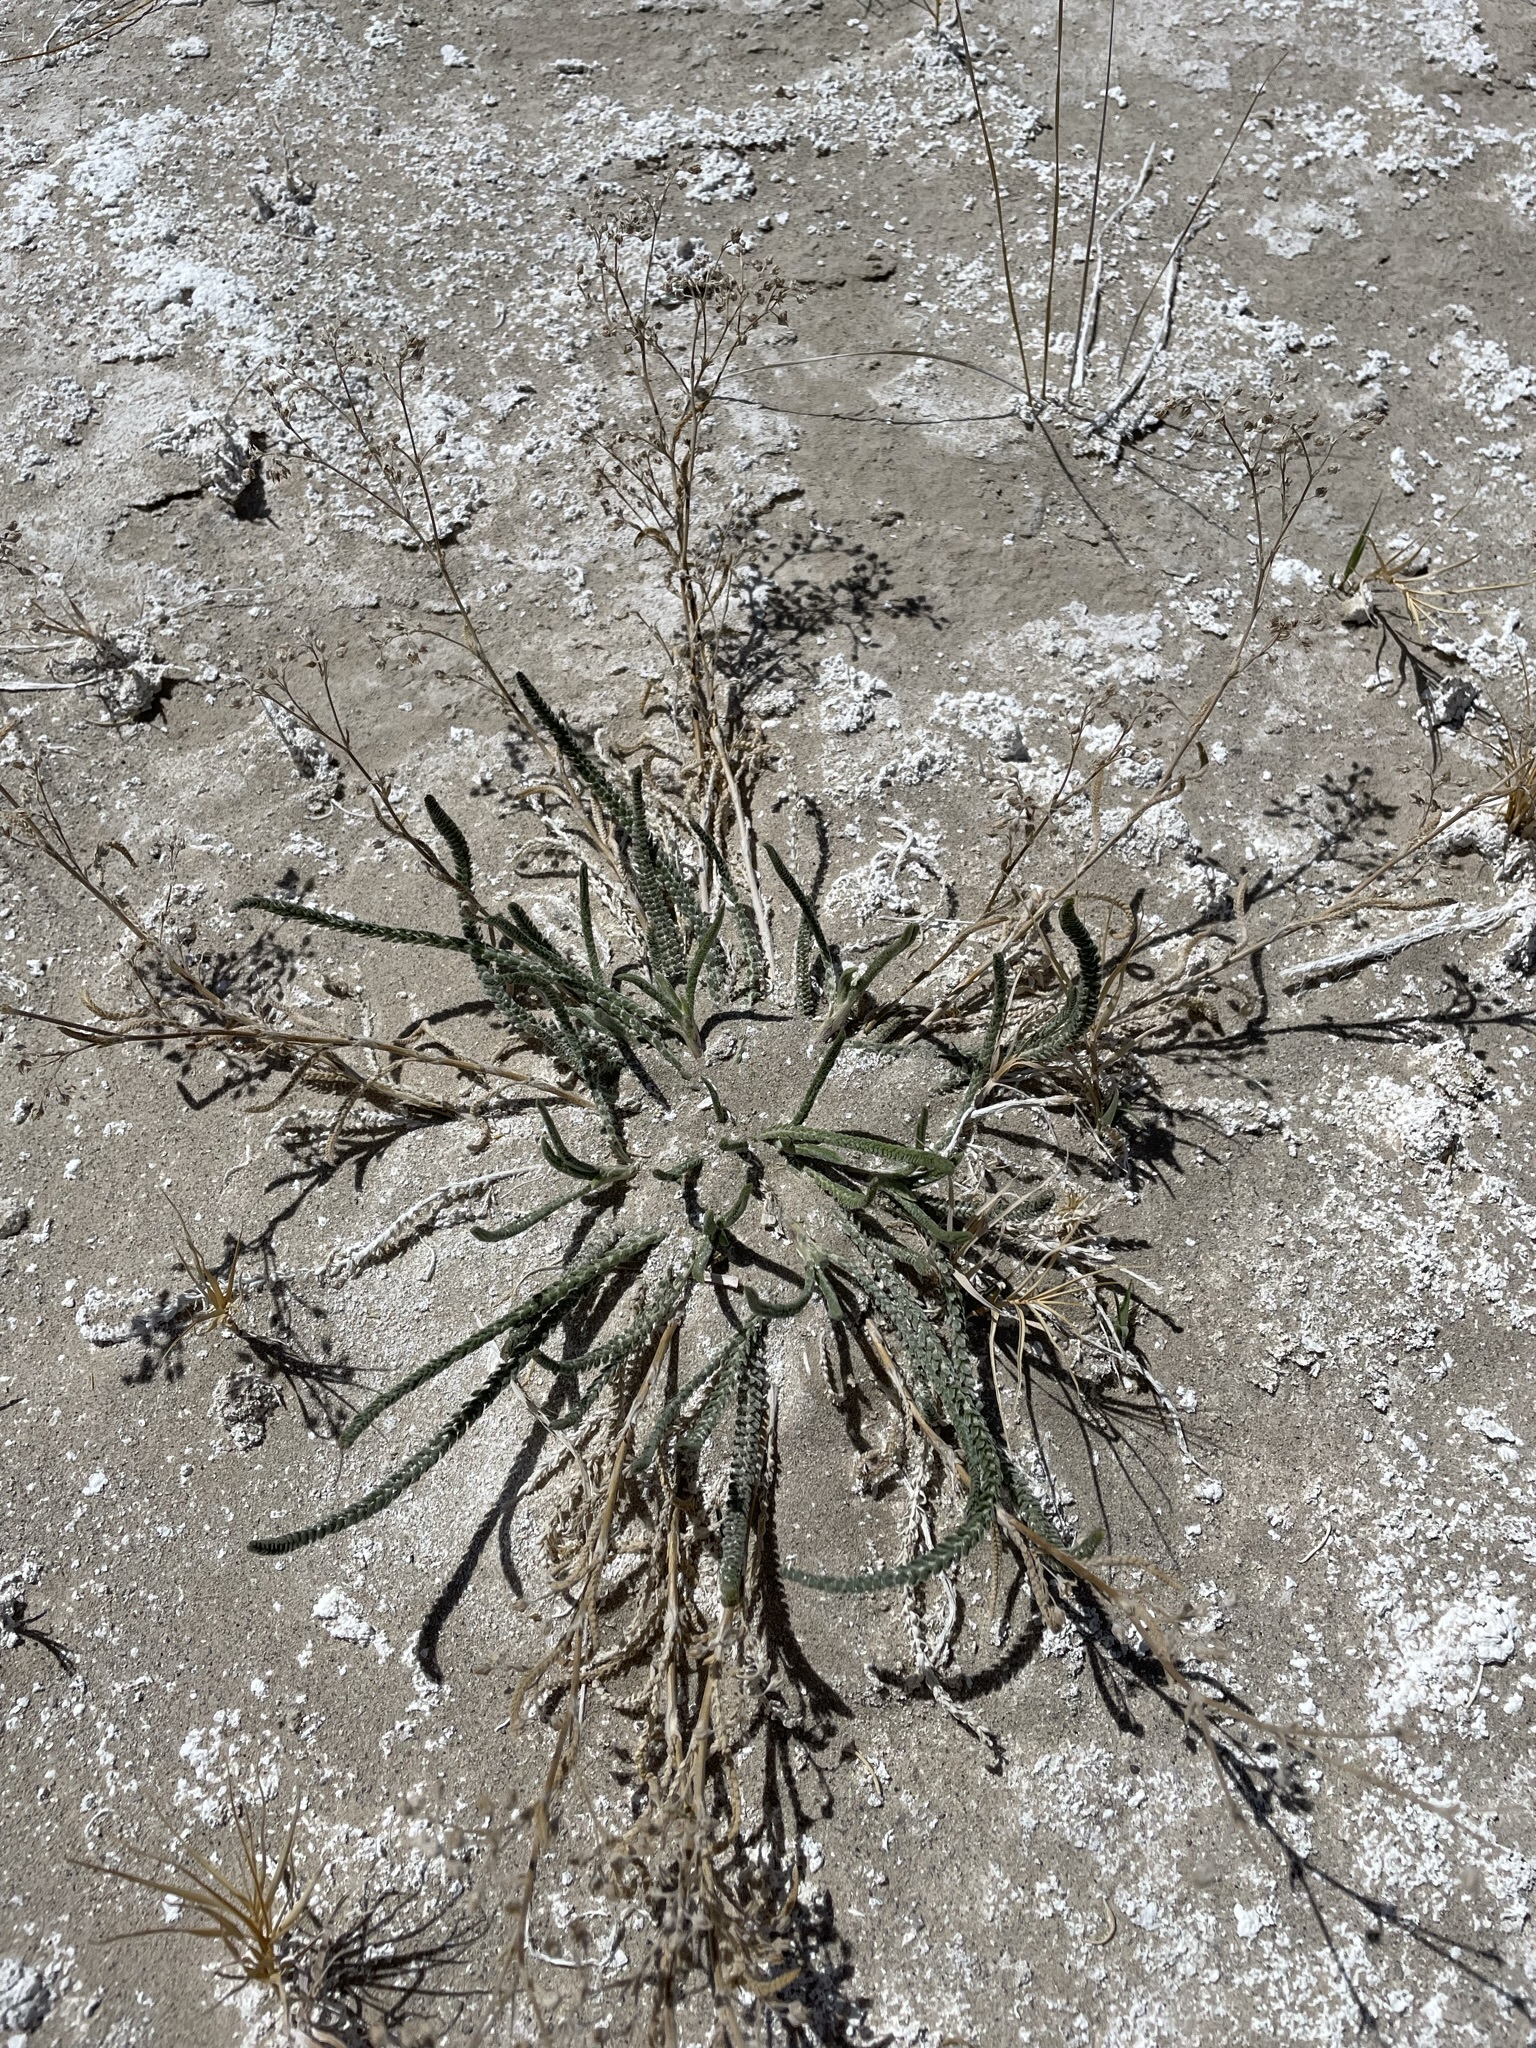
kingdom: Plantae
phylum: Tracheophyta
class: Magnoliopsida
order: Rosales
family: Rosaceae
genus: Potentilla
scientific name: Potentilla kingii
